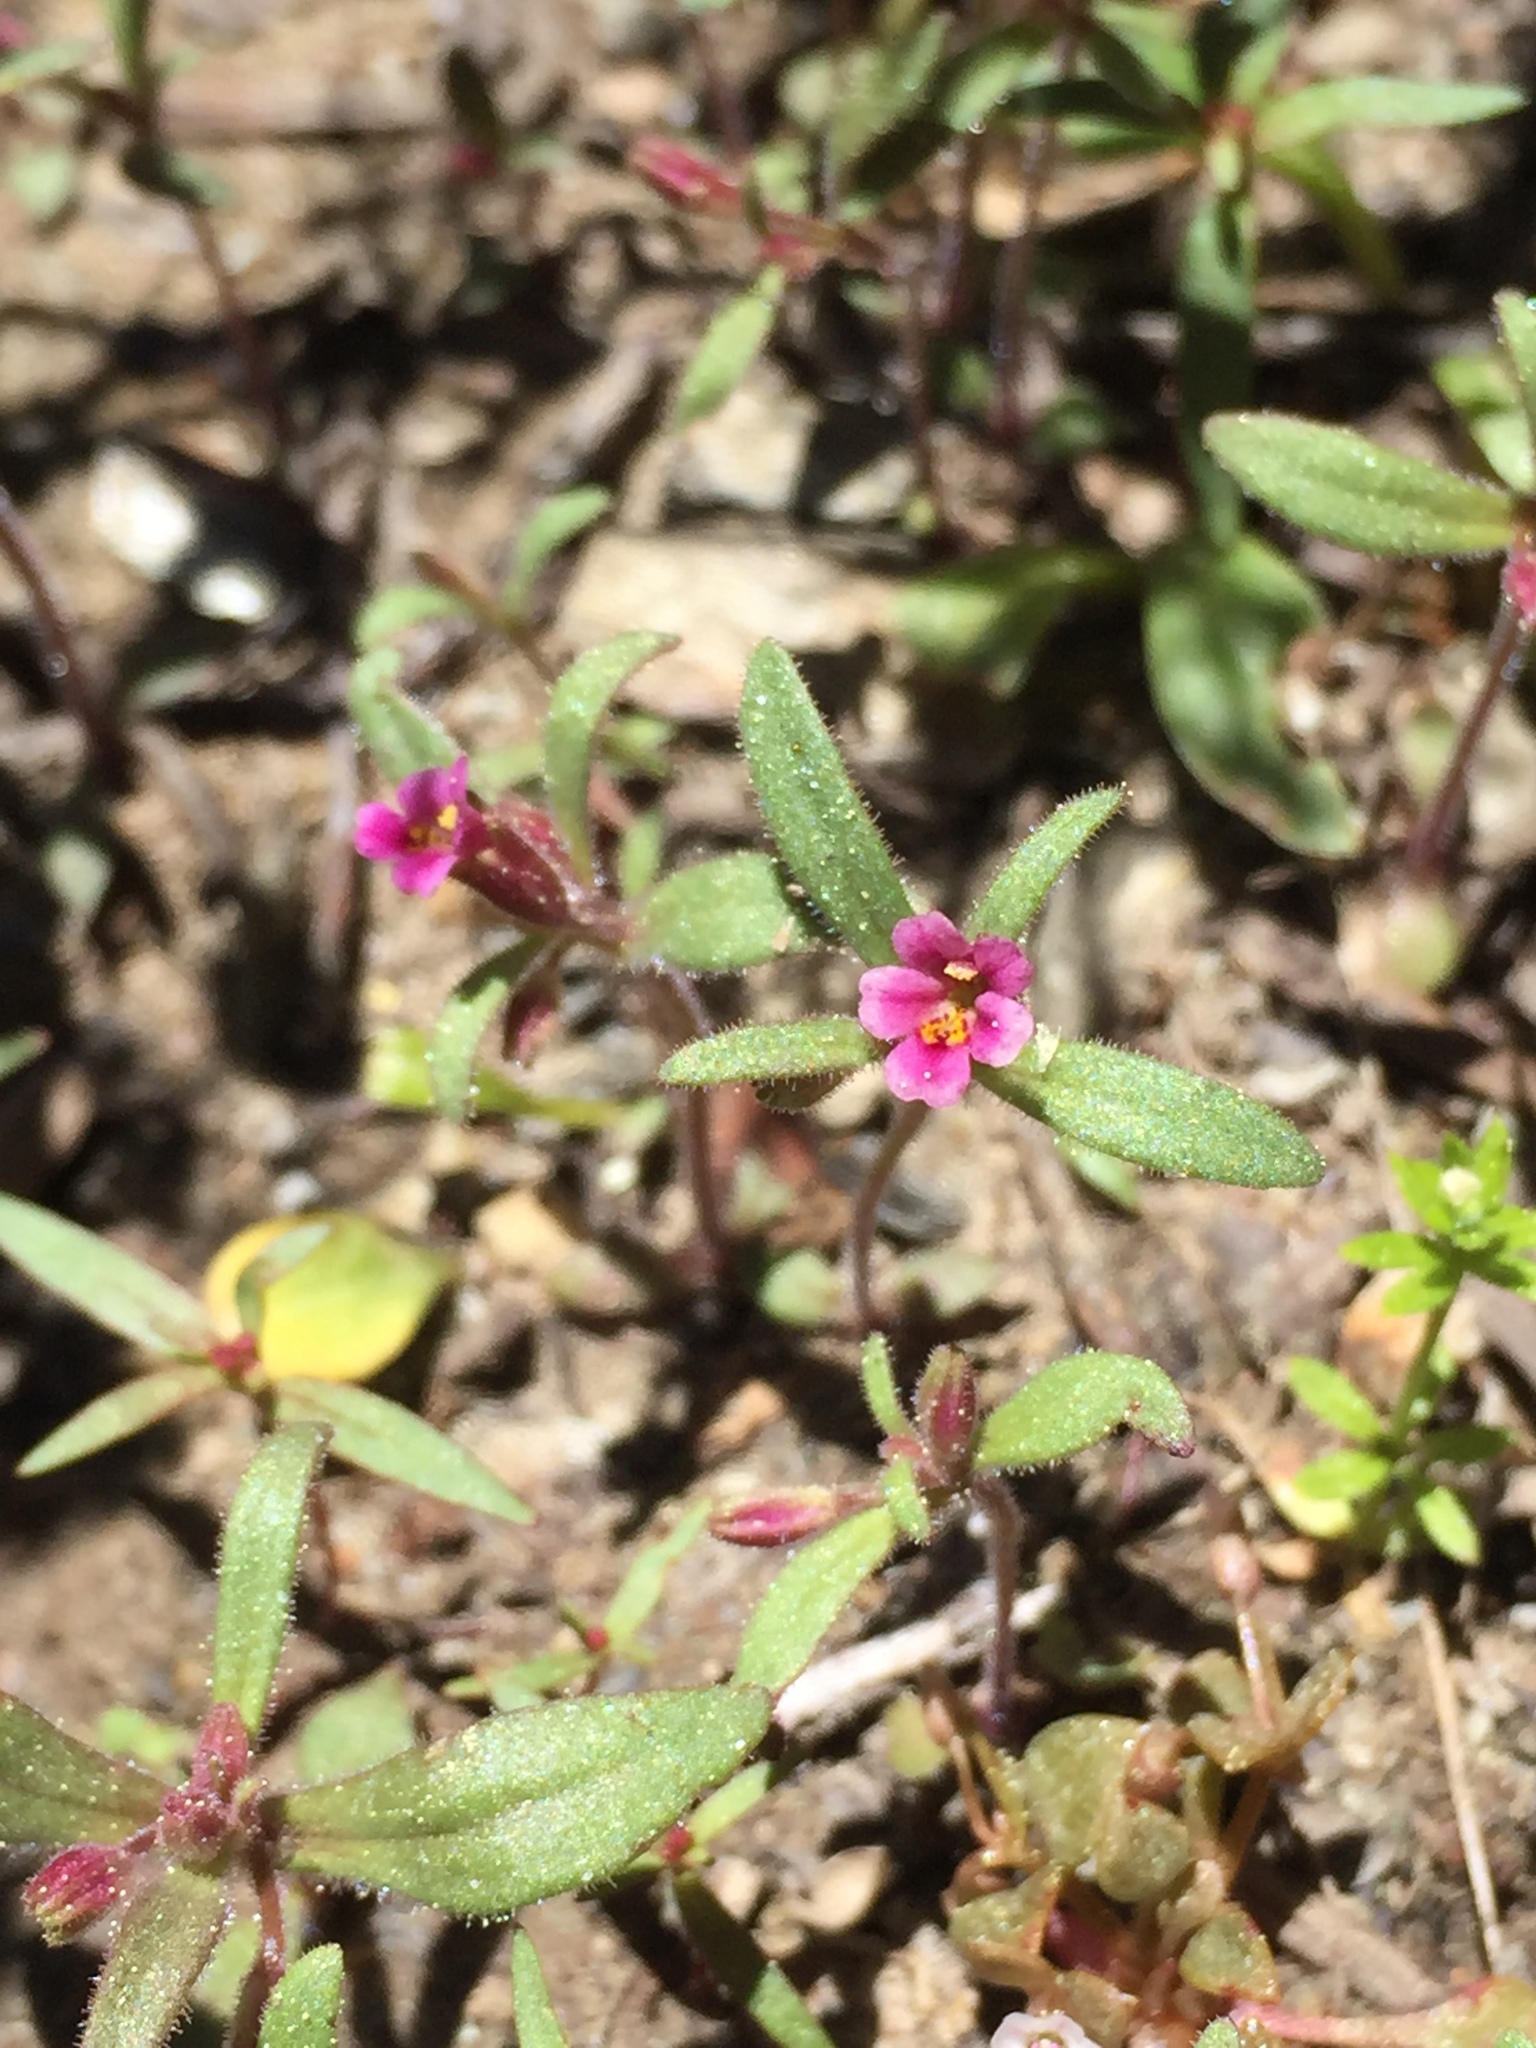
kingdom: Plantae
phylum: Tracheophyta
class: Magnoliopsida
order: Lamiales
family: Phrymaceae
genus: Erythranthe
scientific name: Erythranthe breweri
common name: Brewer's monkeyflower
